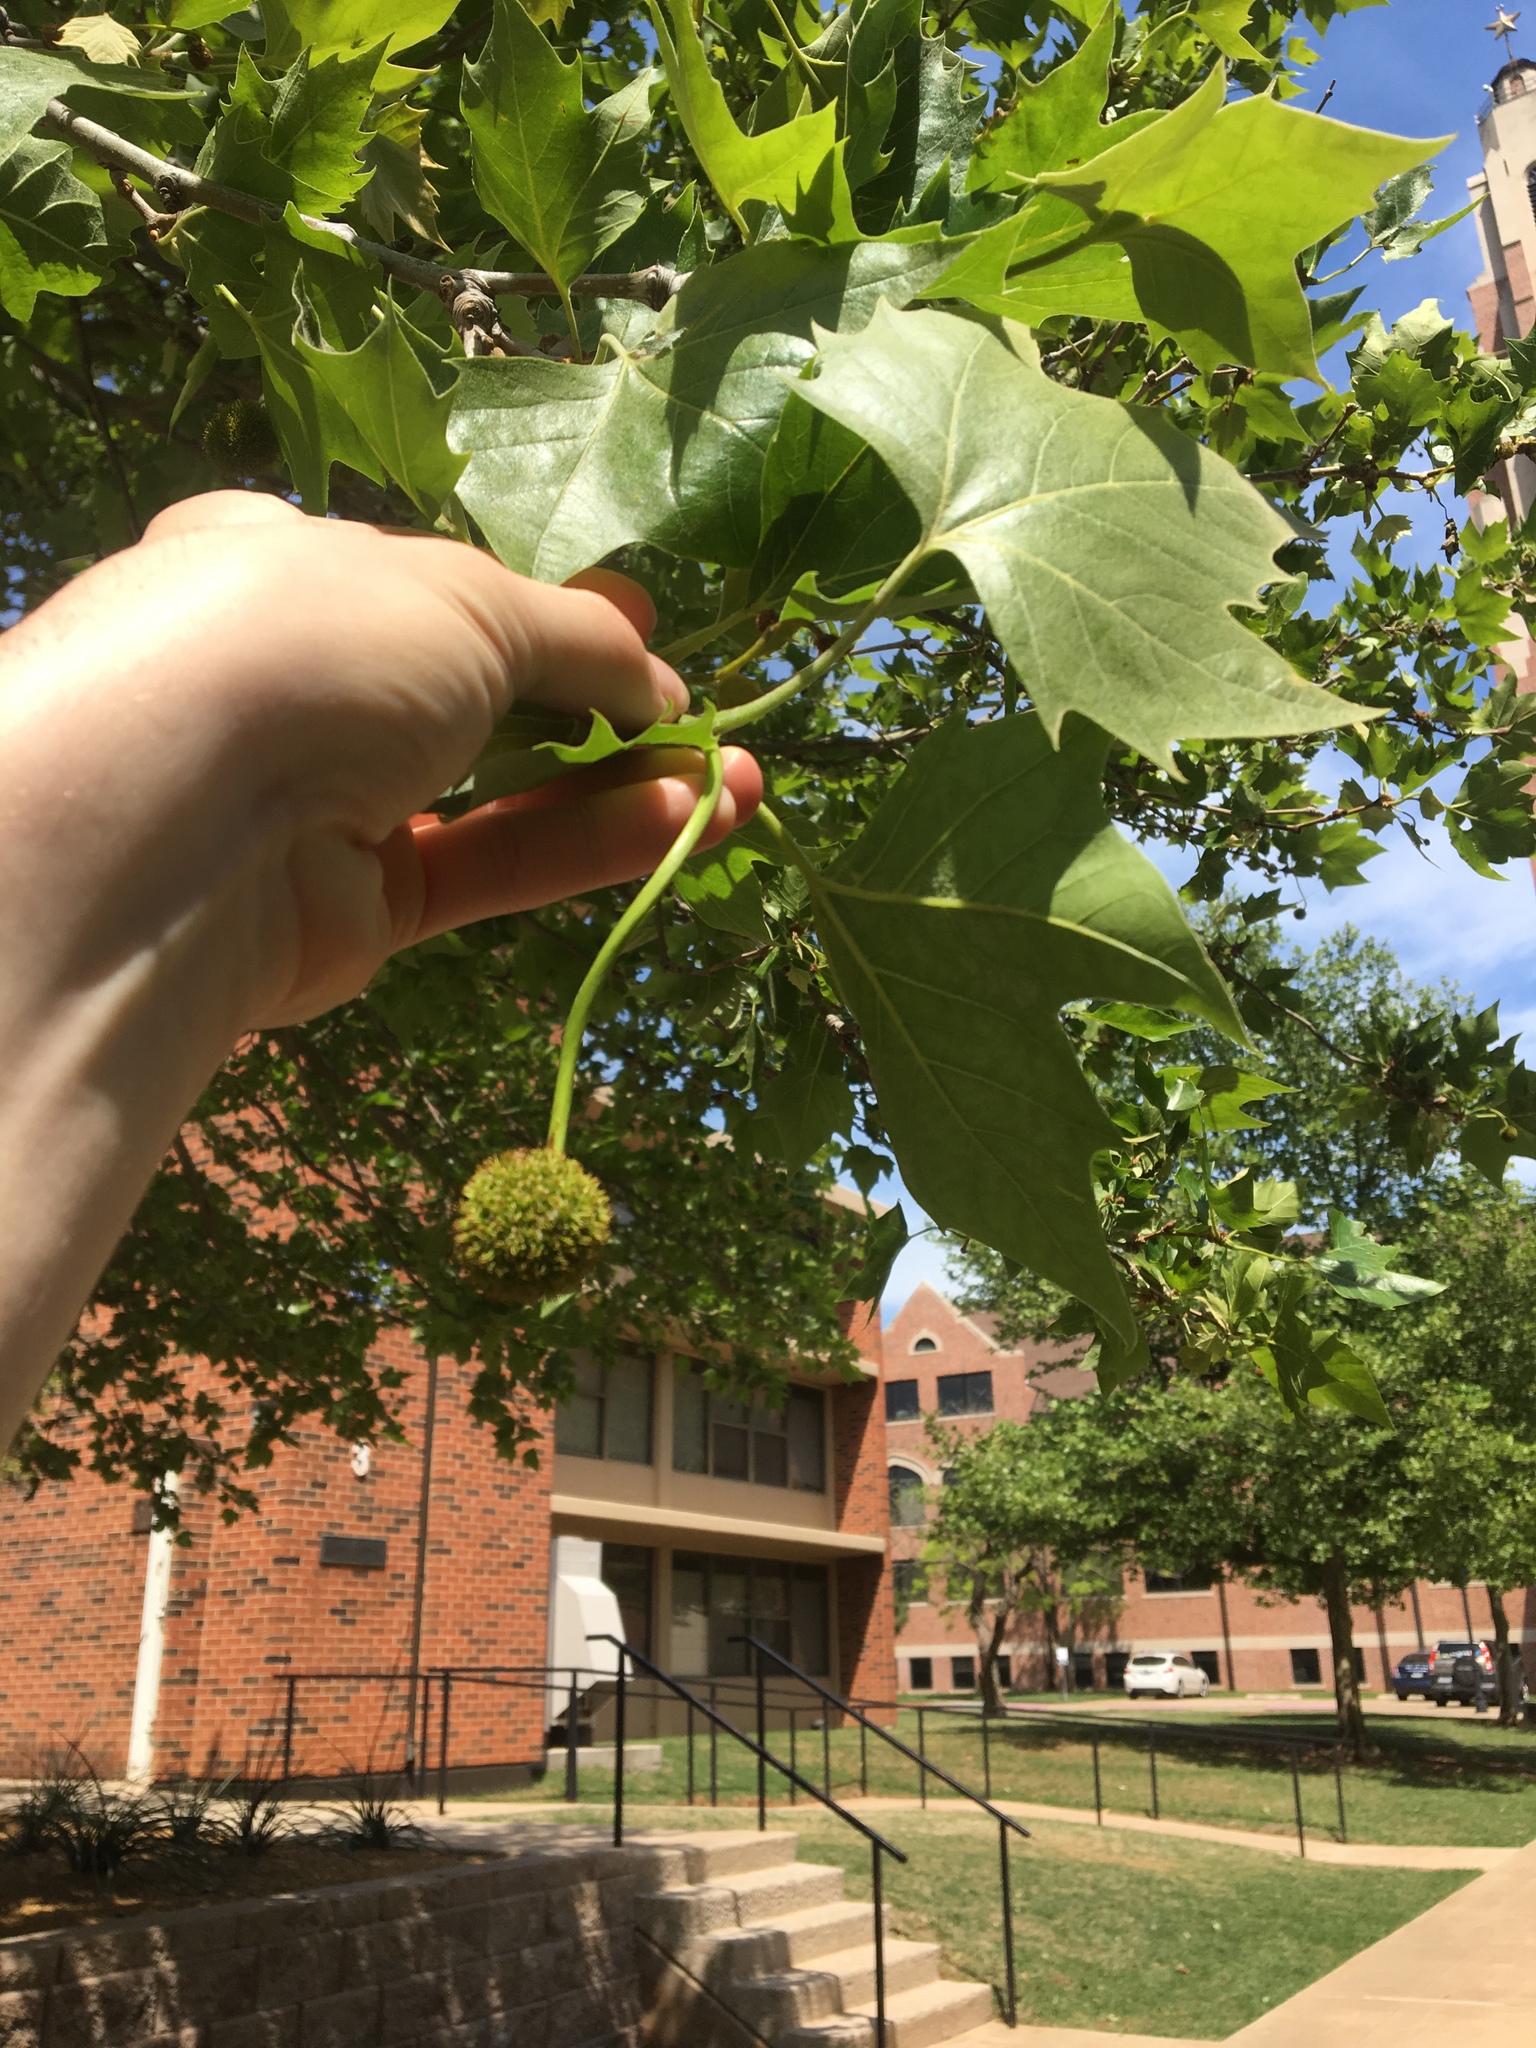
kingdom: Plantae
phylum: Tracheophyta
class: Magnoliopsida
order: Proteales
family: Platanaceae
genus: Platanus
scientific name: Platanus occidentalis
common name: American sycamore
